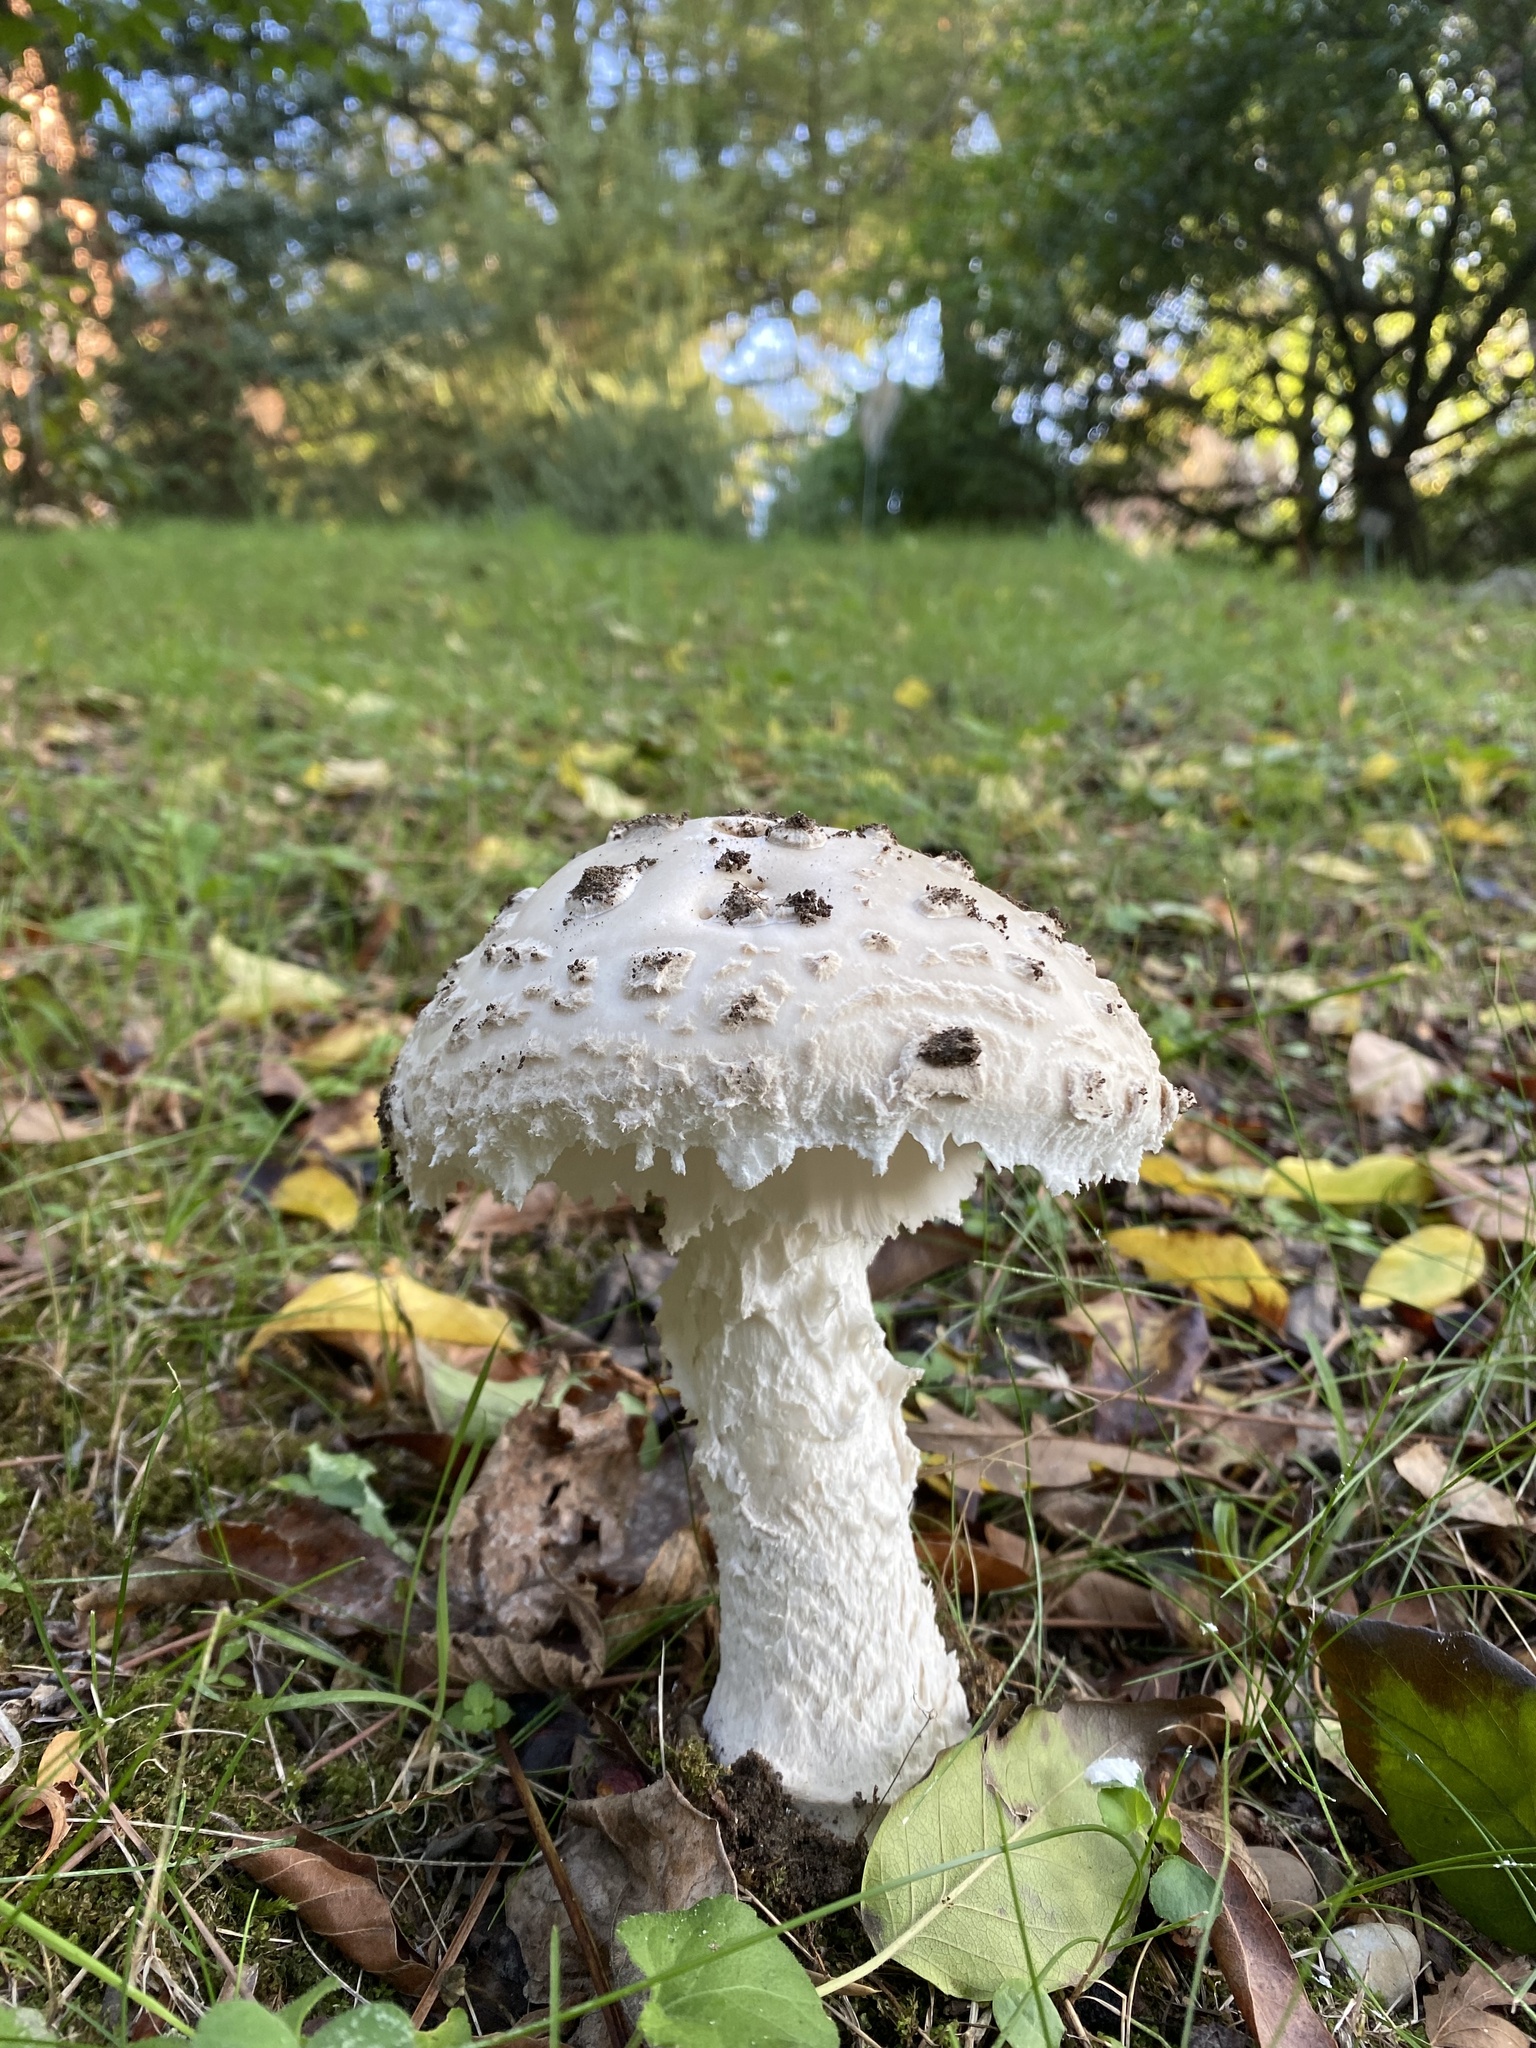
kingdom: Fungi
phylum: Basidiomycota
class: Agaricomycetes
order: Agaricales
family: Amanitaceae
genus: Amanita
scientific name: Amanita strobiliformis
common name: Warted amanita
